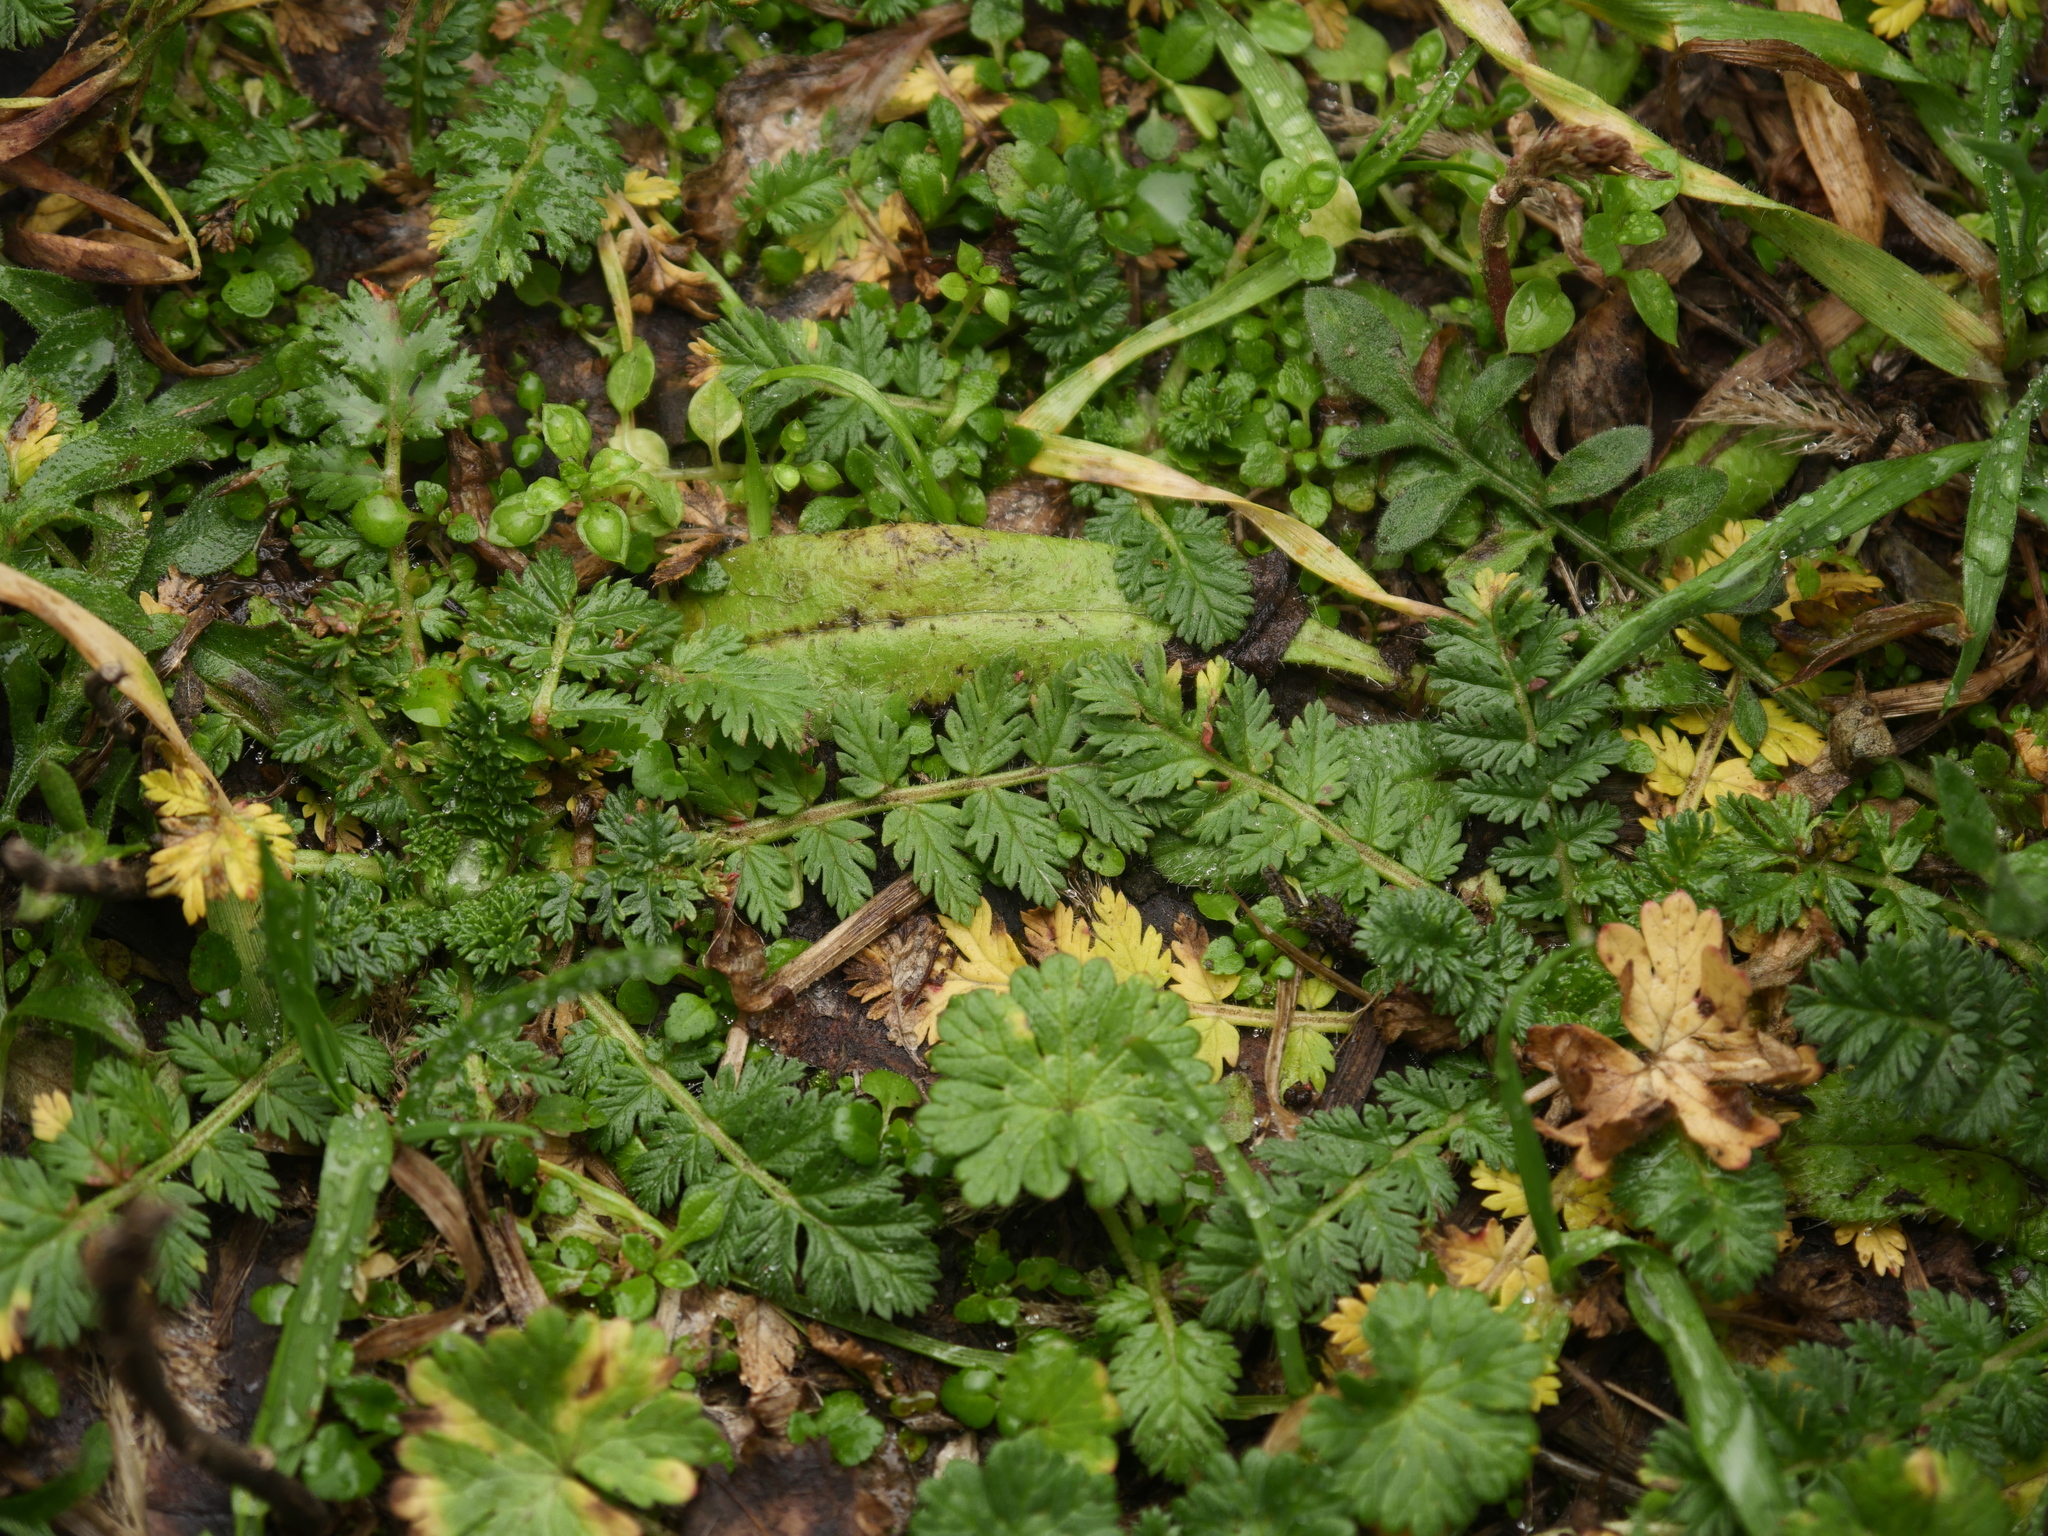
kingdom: Plantae
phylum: Tracheophyta
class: Magnoliopsida
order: Geraniales
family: Geraniaceae
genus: Erodium
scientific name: Erodium cicutarium
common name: Common stork's-bill
